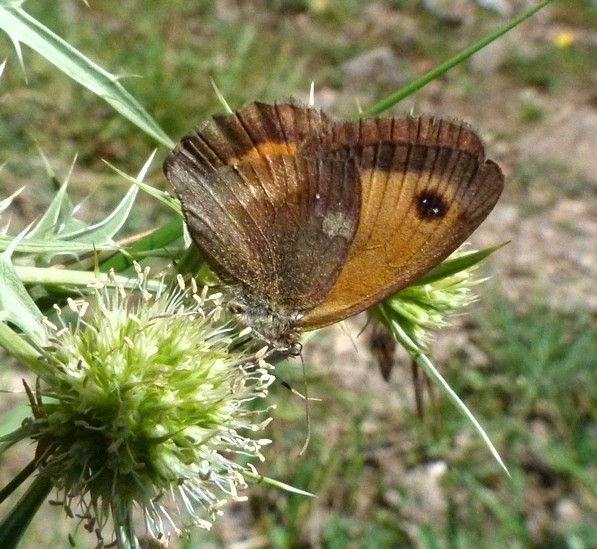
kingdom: Animalia
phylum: Arthropoda
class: Insecta
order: Lepidoptera
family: Nymphalidae
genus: Pyronia
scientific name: Pyronia tithonus
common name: Gatekeeper
